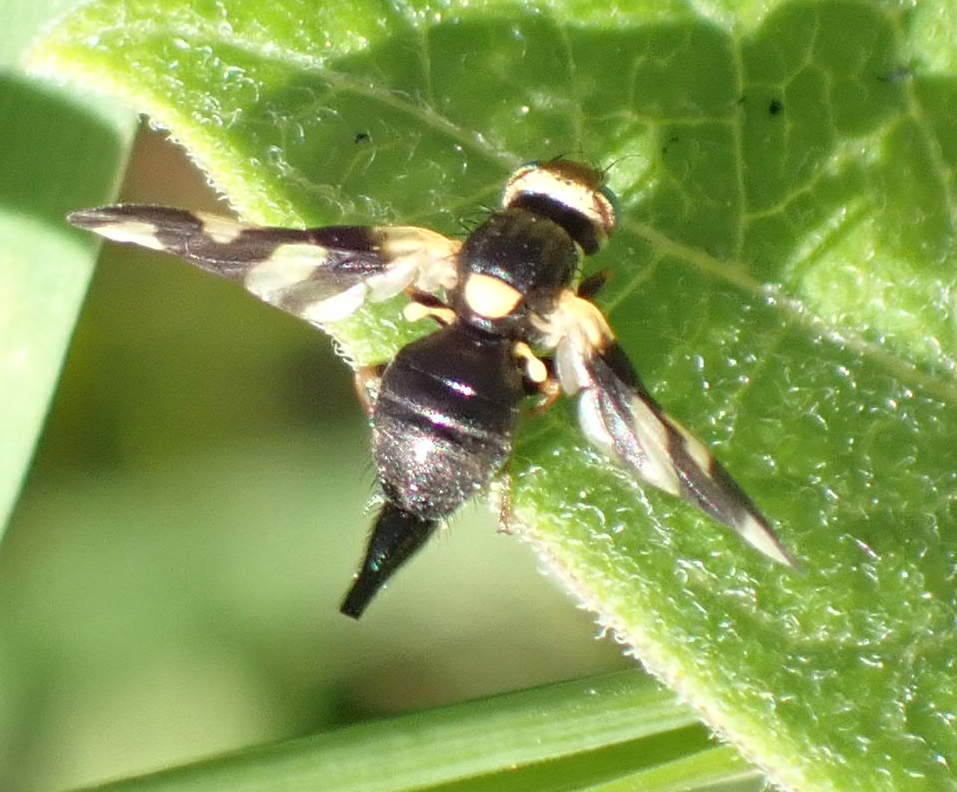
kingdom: Animalia
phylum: Arthropoda
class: Insecta
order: Diptera
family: Tephritidae
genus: Urophora
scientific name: Urophora cardui
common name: Fruit fly
